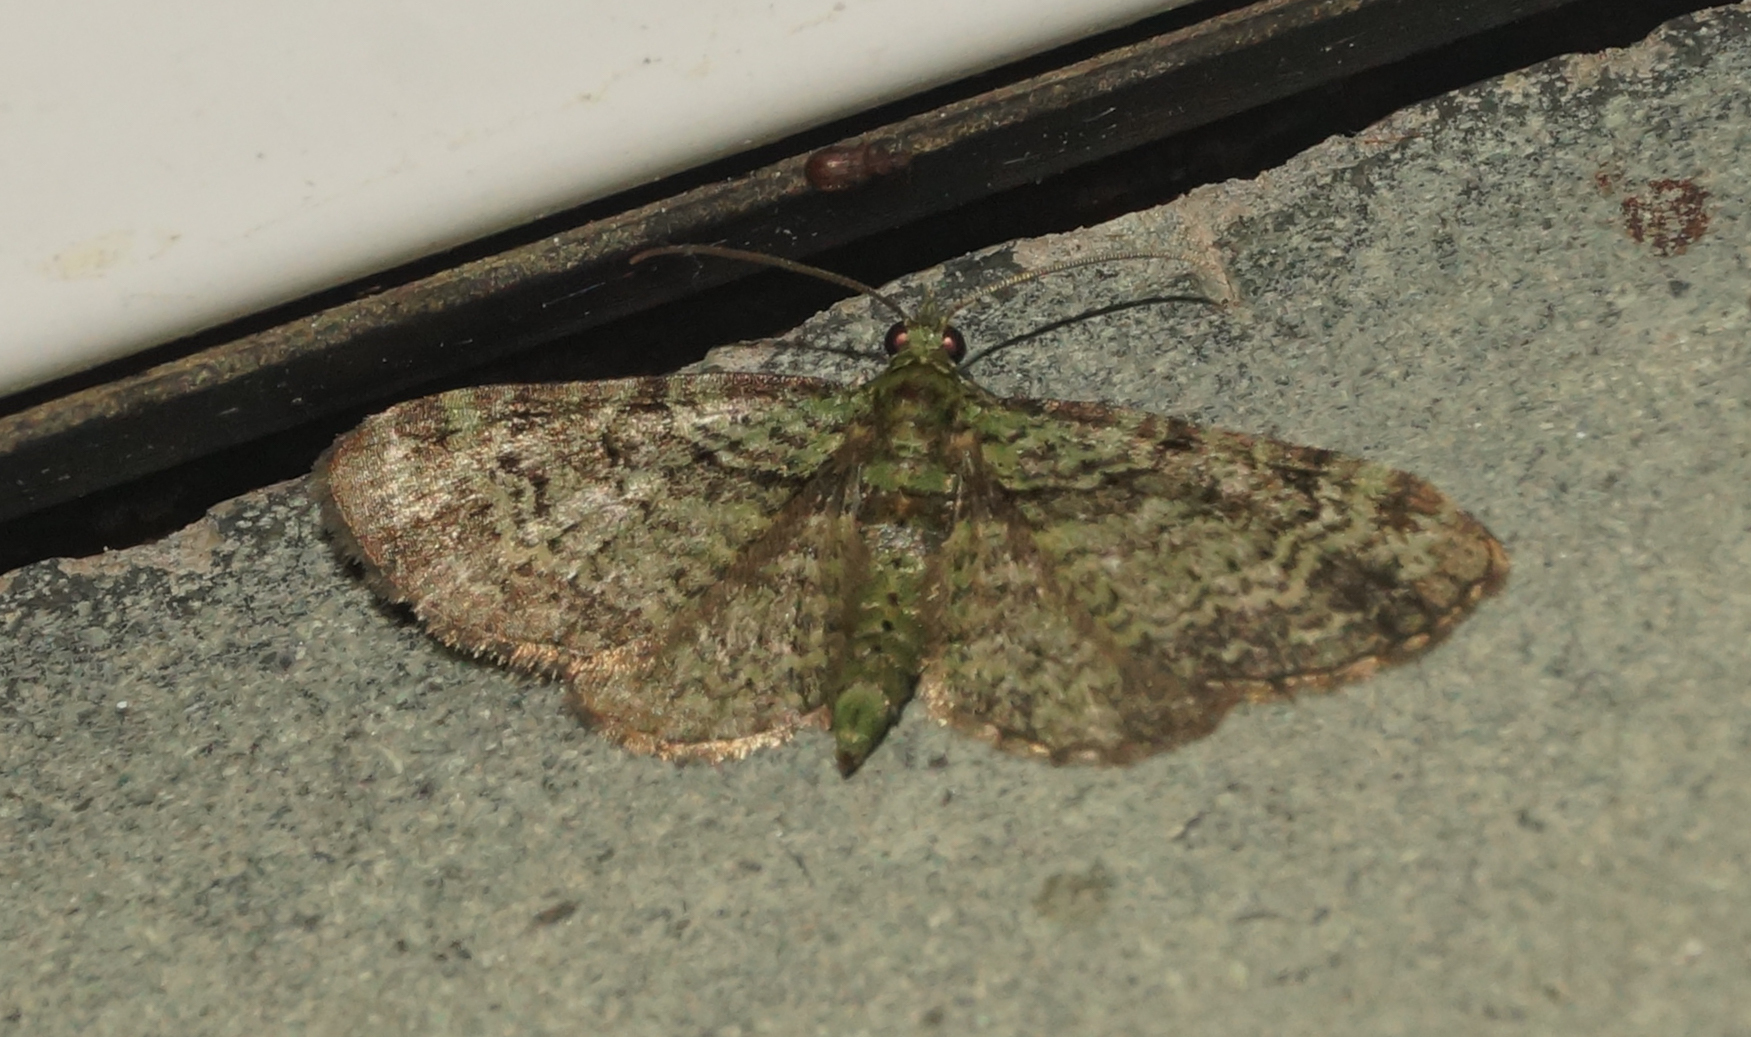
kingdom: Animalia
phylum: Arthropoda
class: Insecta
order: Lepidoptera
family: Geometridae
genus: Pasiphila
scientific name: Pasiphila rectangulata
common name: Green pug
